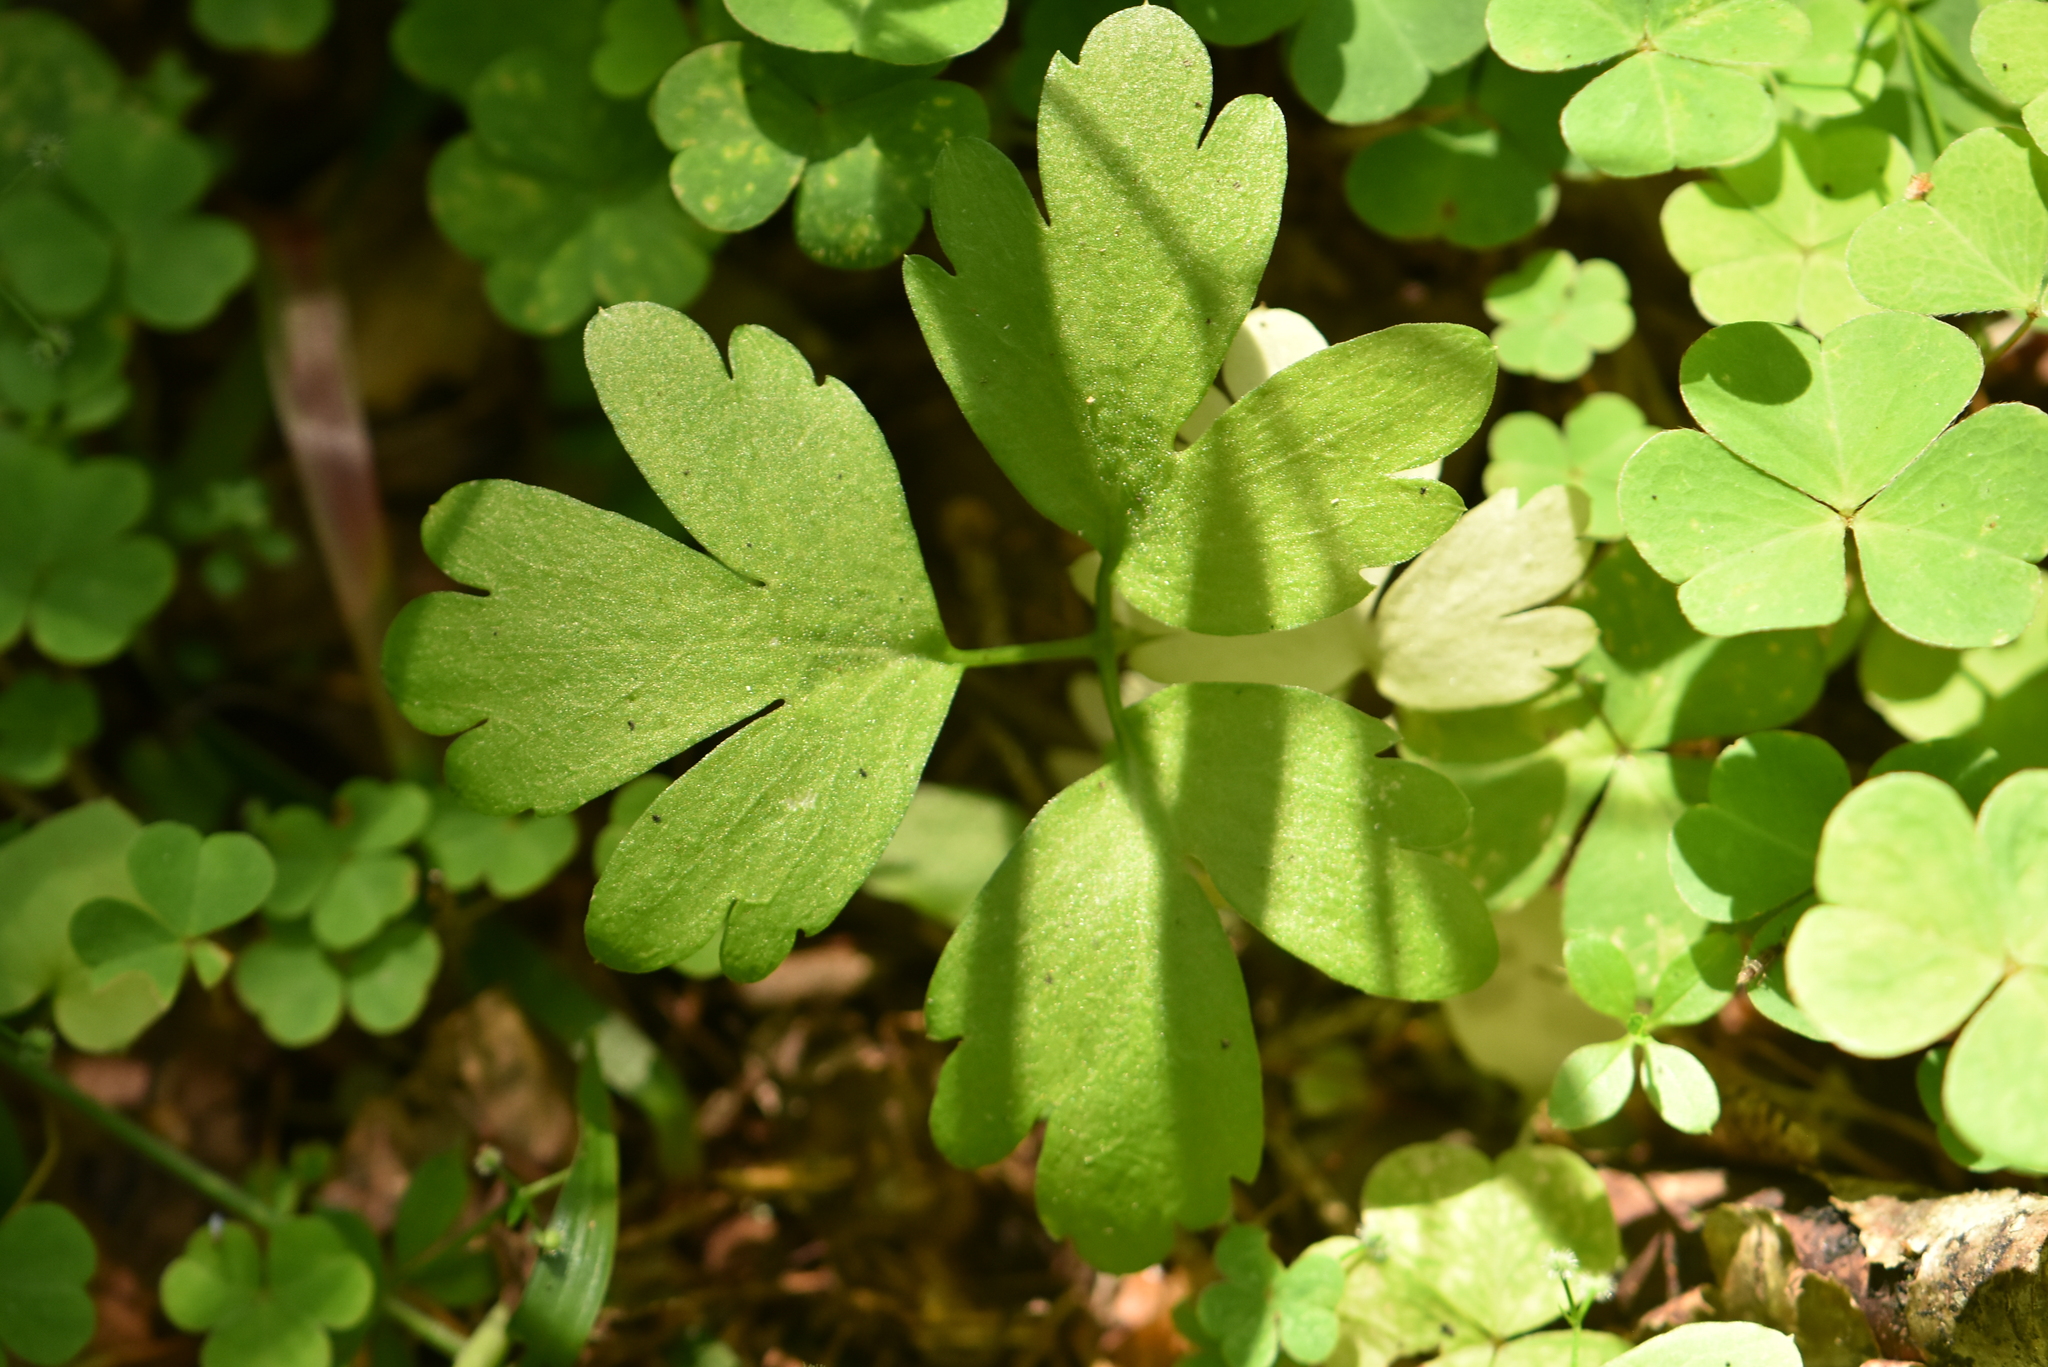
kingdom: Plantae
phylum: Tracheophyta
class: Magnoliopsida
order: Dipsacales
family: Viburnaceae
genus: Adoxa
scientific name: Adoxa moschatellina
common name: Moschatel
